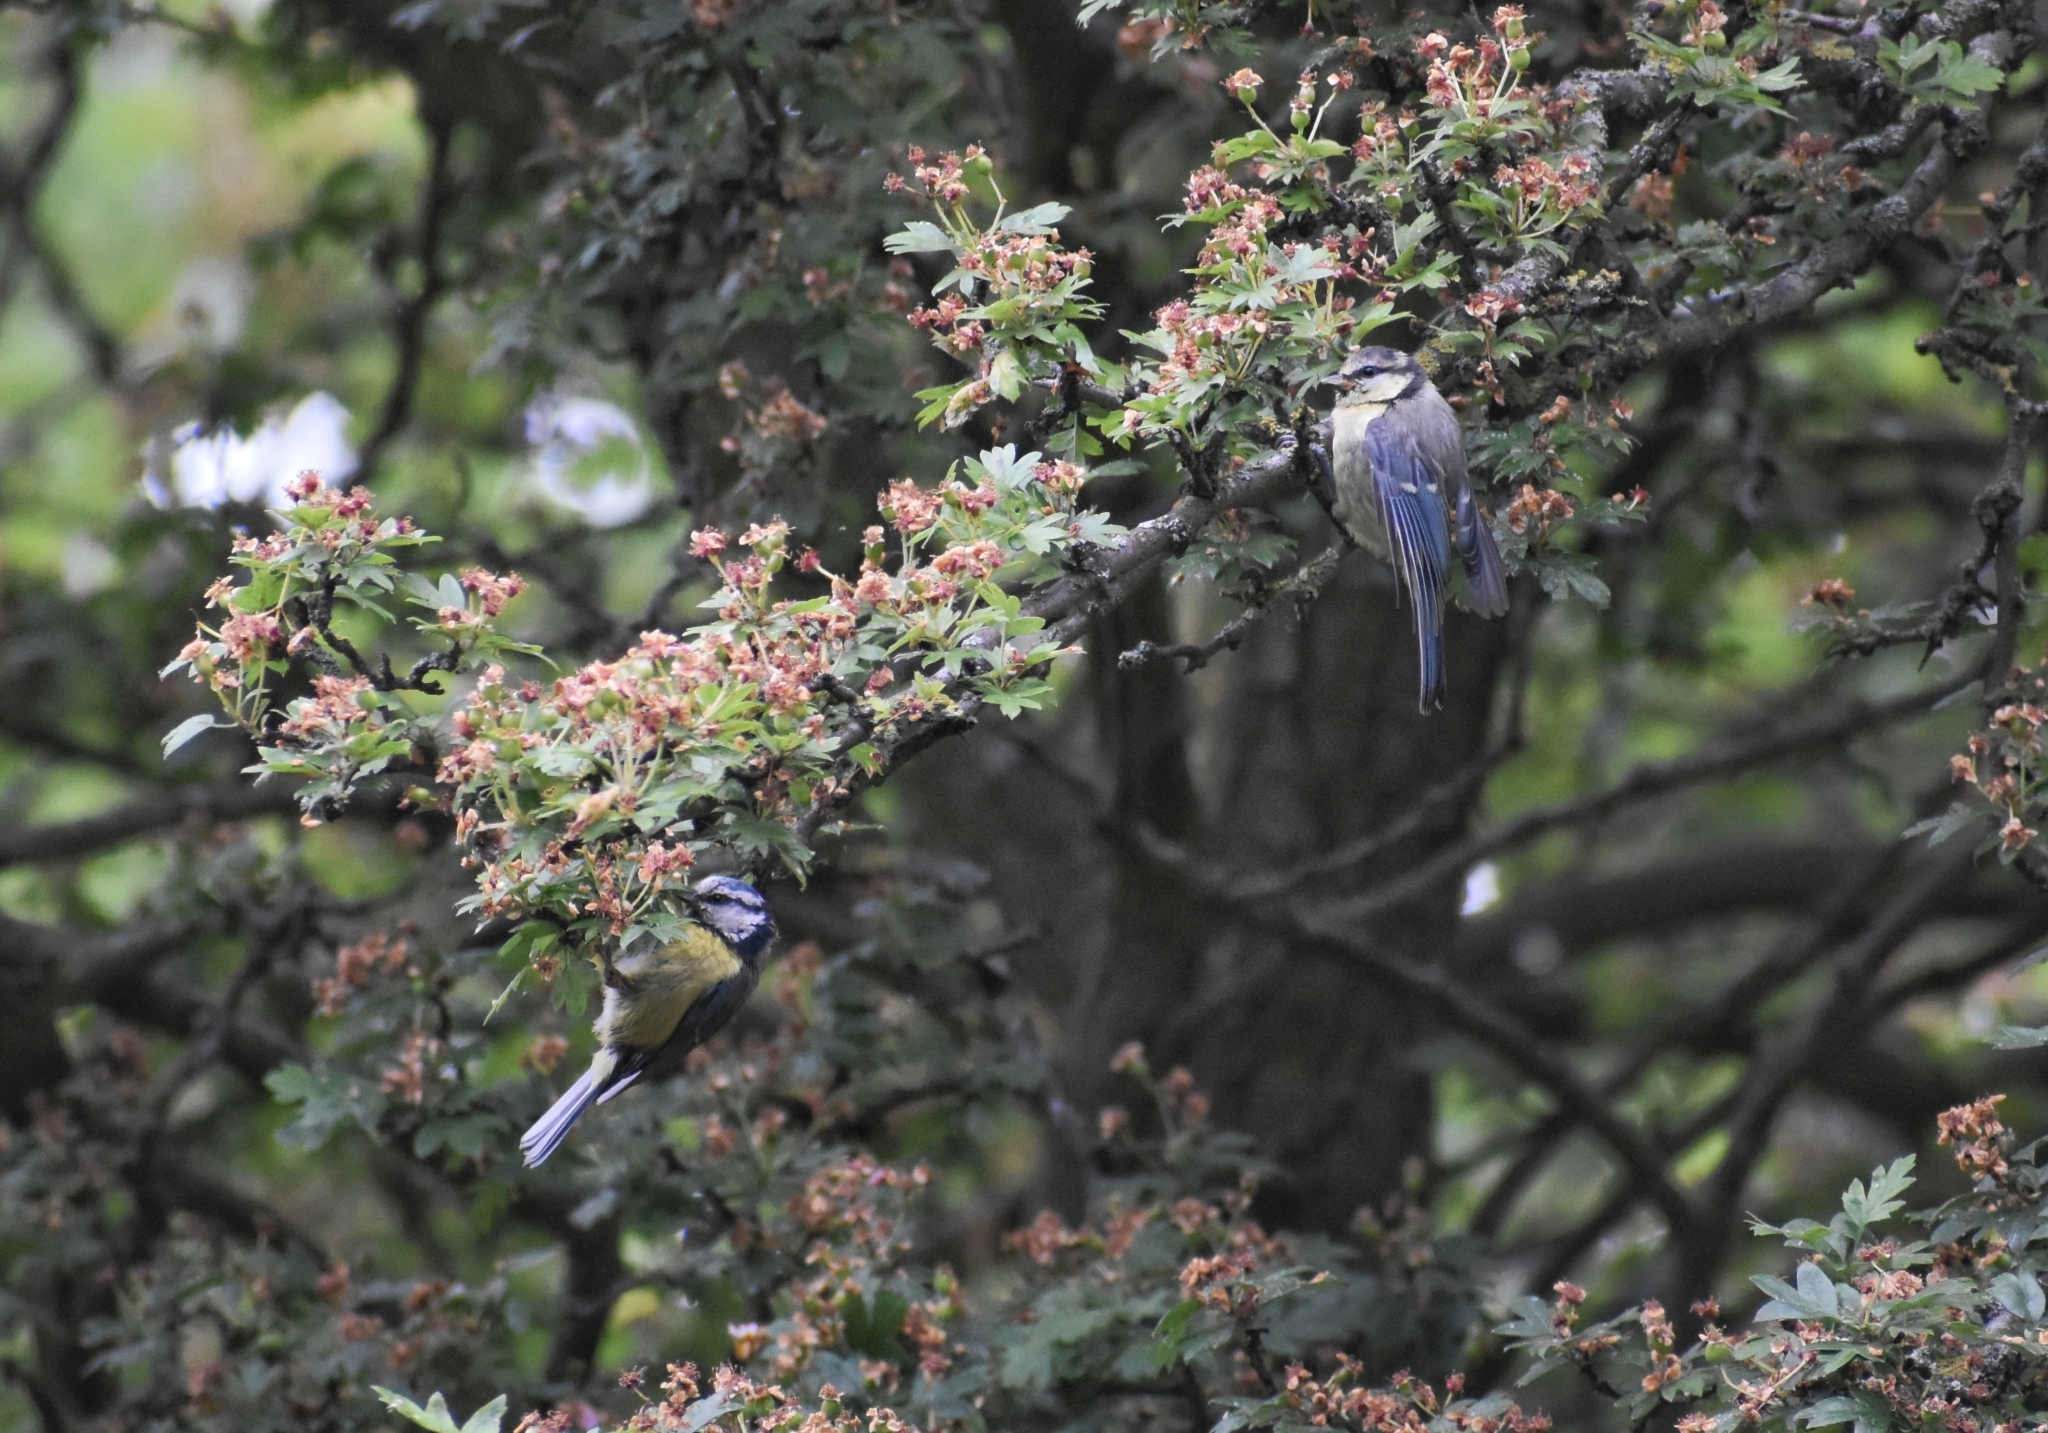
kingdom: Animalia
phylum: Chordata
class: Aves
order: Passeriformes
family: Paridae
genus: Cyanistes
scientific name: Cyanistes caeruleus
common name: Eurasian blue tit
